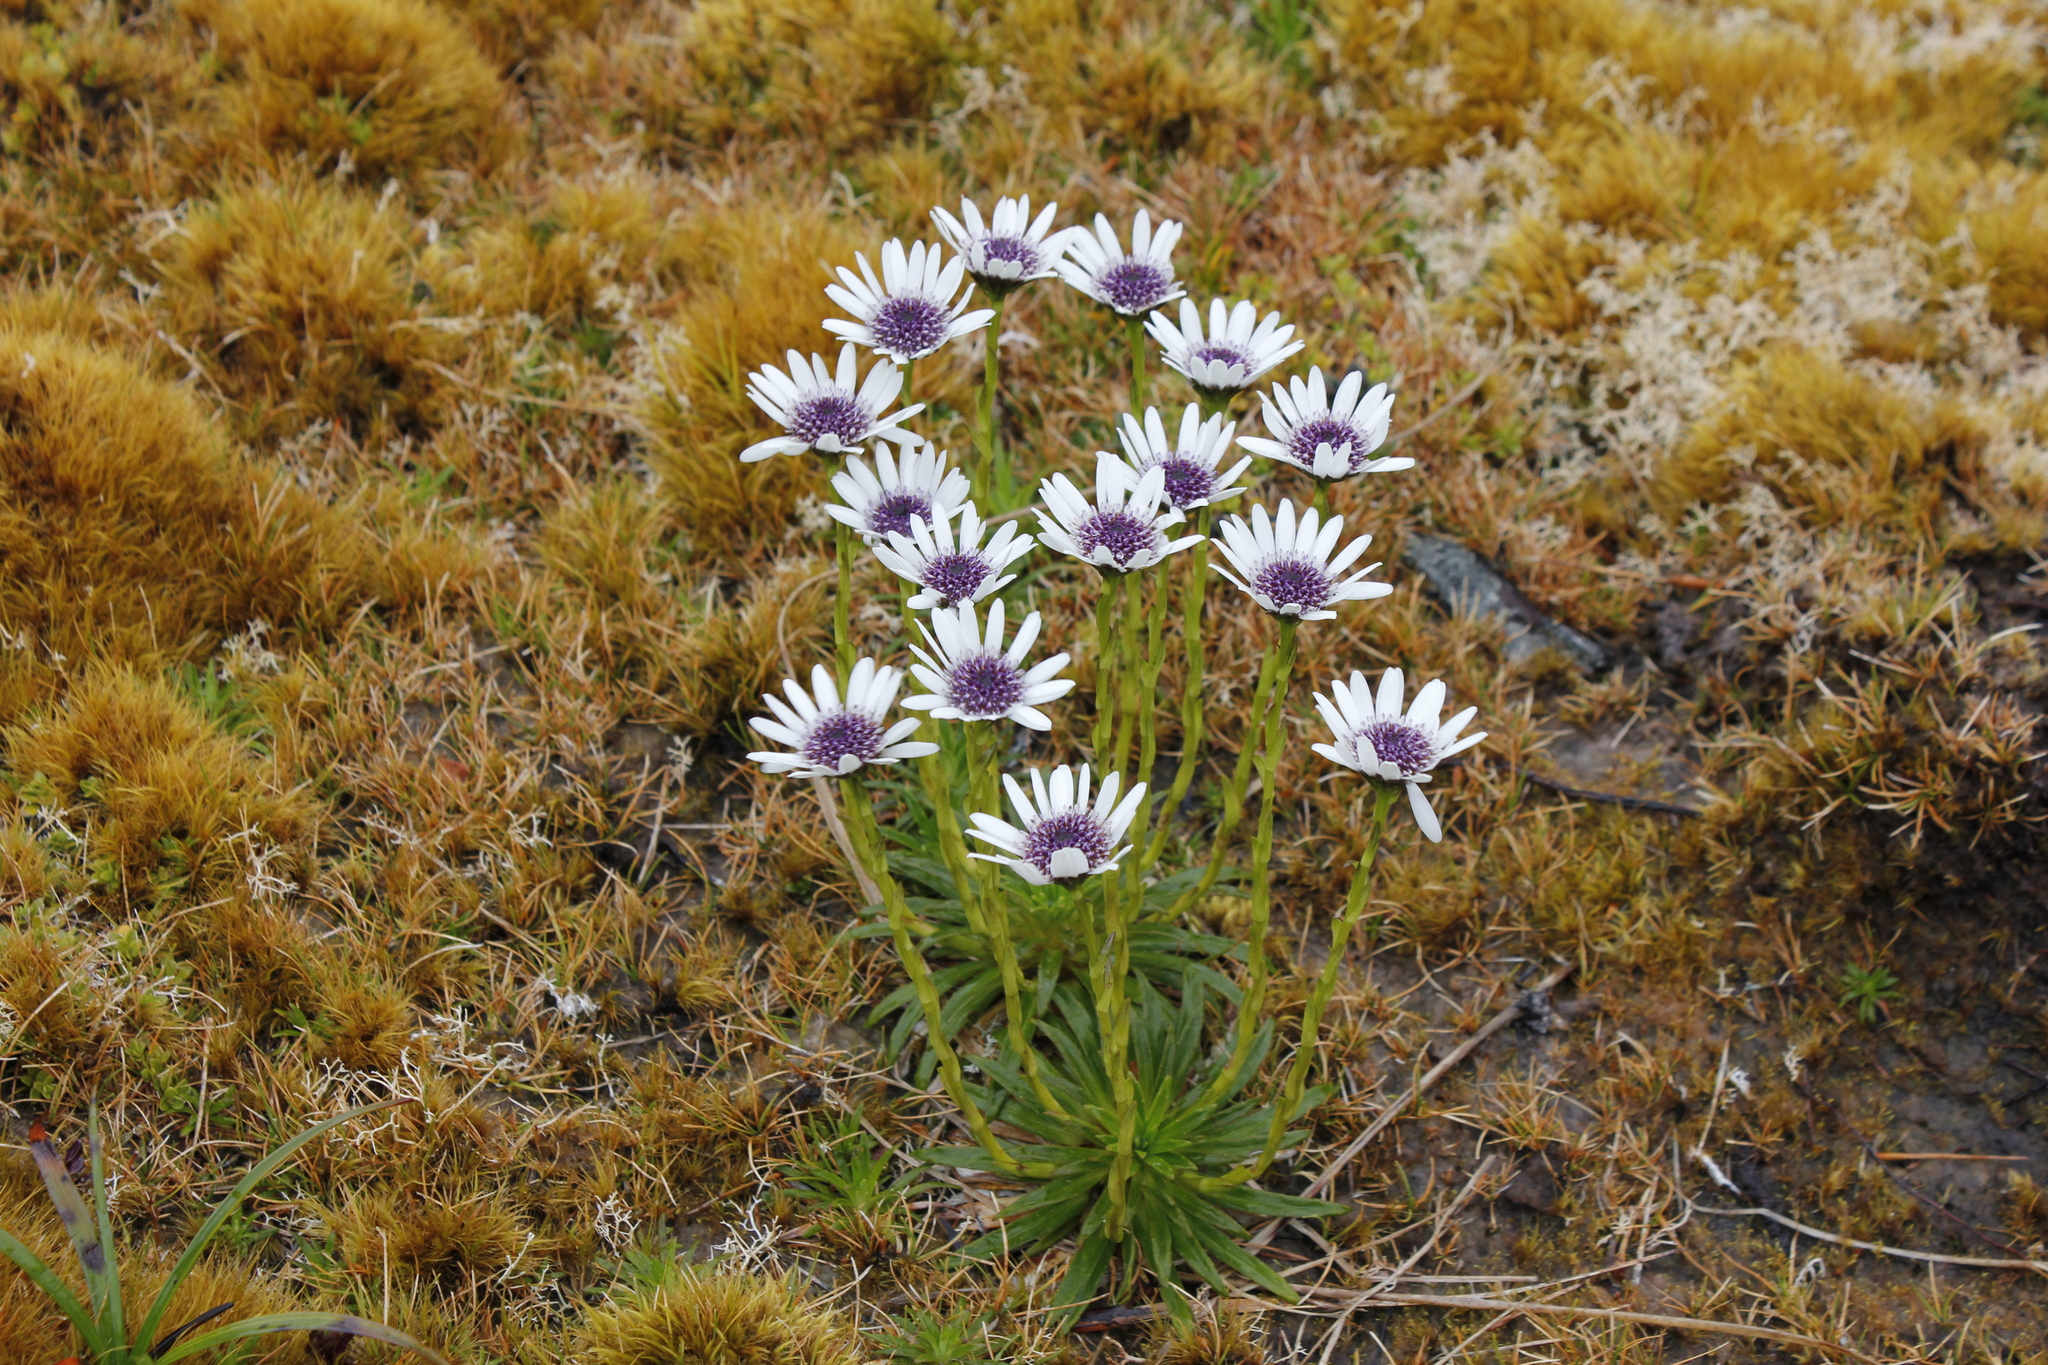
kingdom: Plantae
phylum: Tracheophyta
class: Magnoliopsida
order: Asterales
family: Asteraceae
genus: Damnamenia
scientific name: Damnamenia vernicosa
